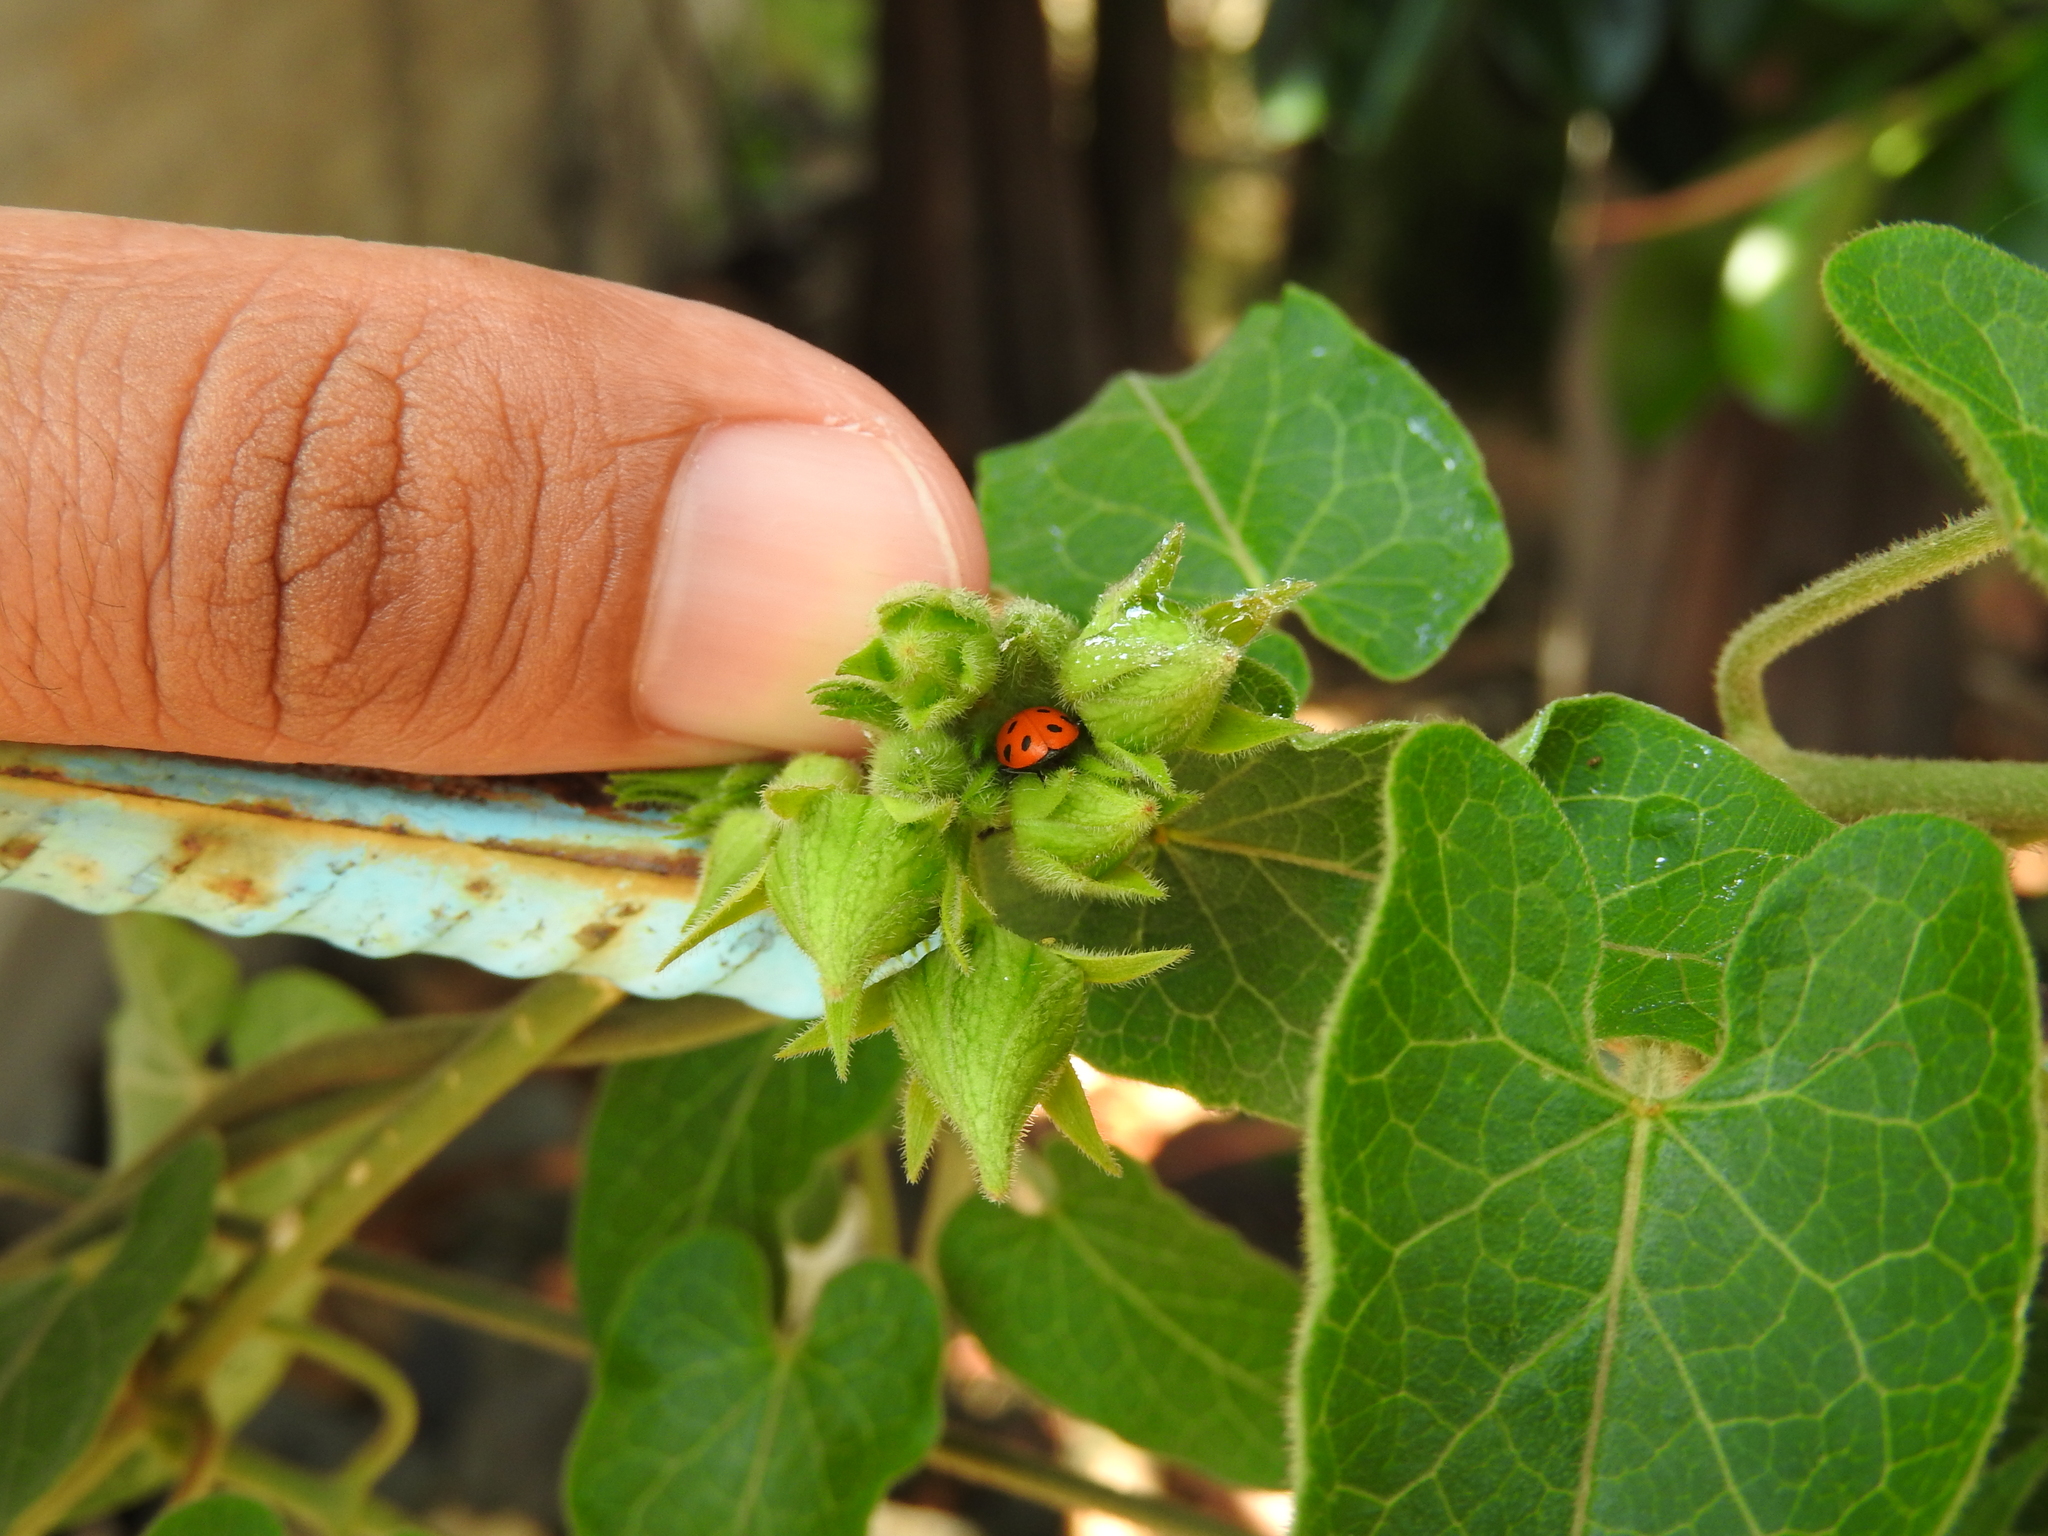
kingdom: Animalia
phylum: Arthropoda
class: Insecta
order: Coleoptera
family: Coccinellidae
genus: Hippodamia
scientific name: Hippodamia convergens
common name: Convergent lady beetle
